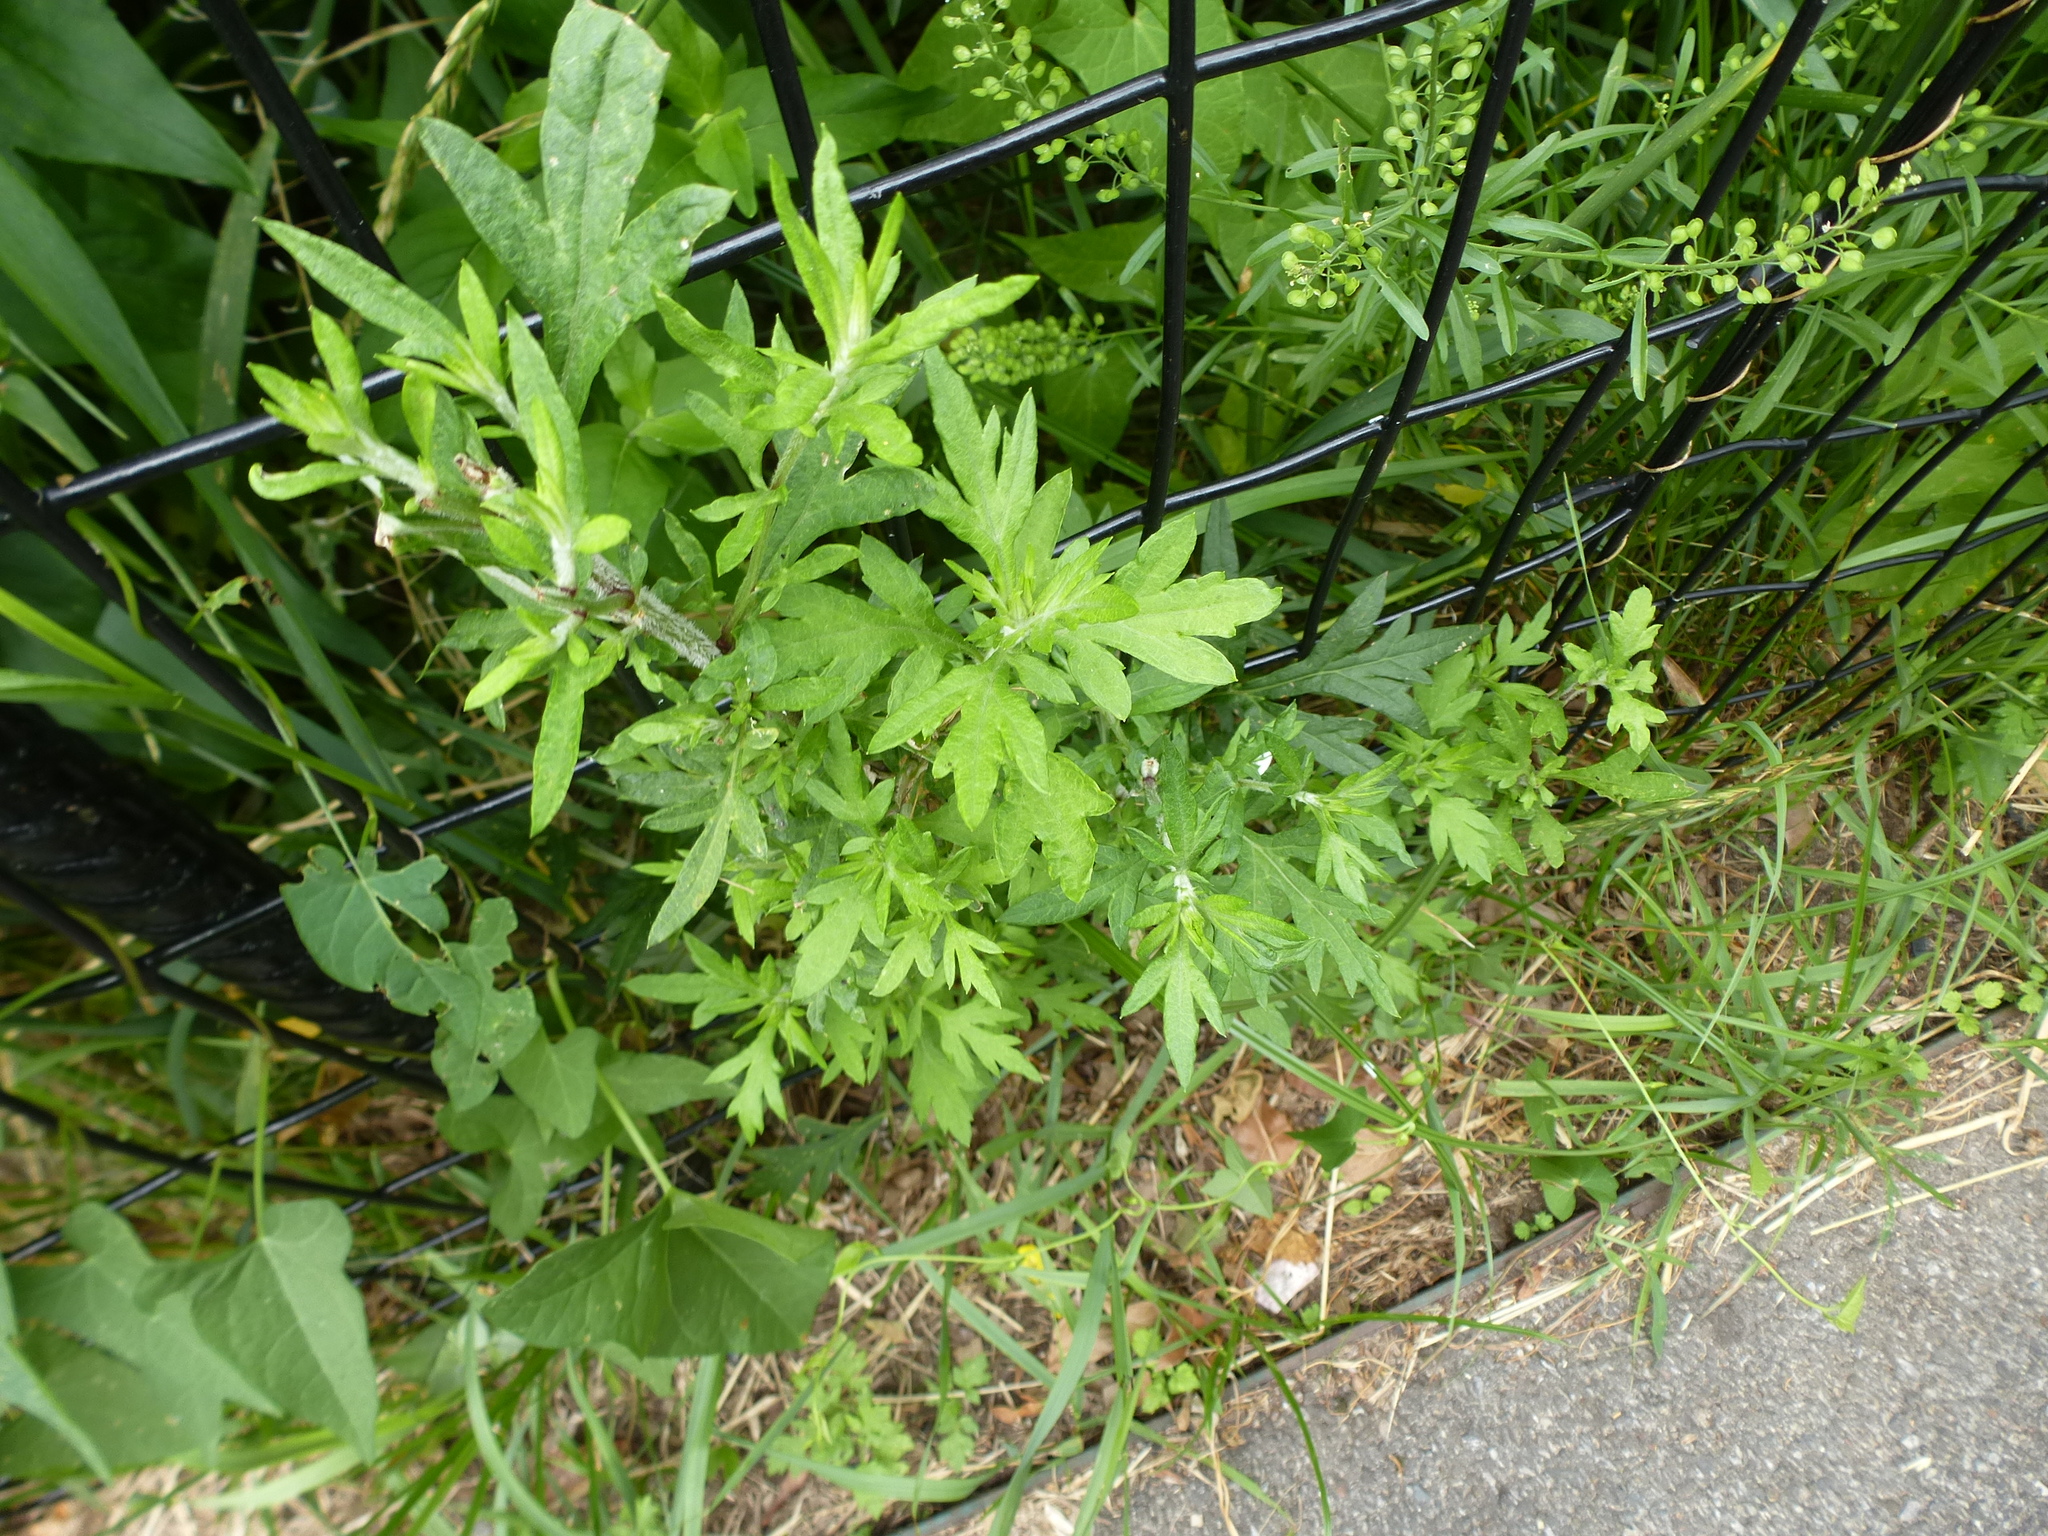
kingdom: Plantae
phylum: Tracheophyta
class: Magnoliopsida
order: Asterales
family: Asteraceae
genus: Artemisia
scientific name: Artemisia vulgaris
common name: Mugwort
